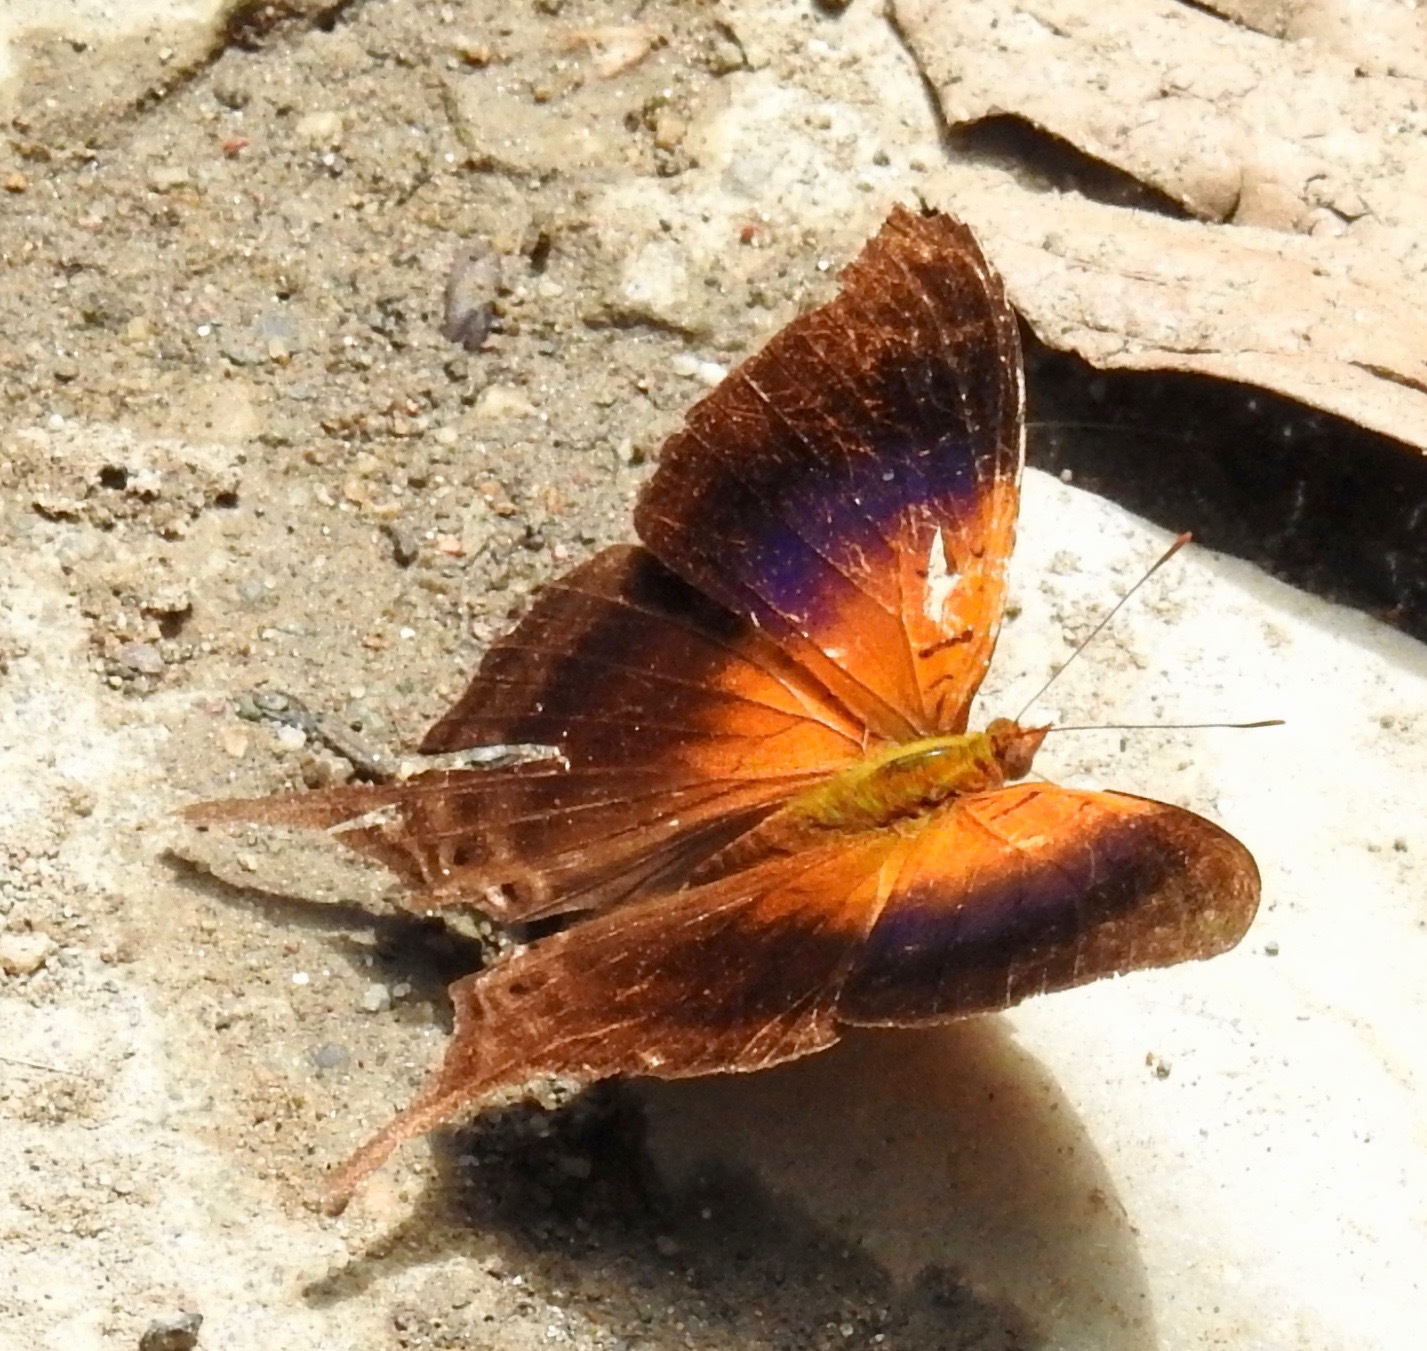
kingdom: Animalia
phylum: Arthropoda
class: Insecta
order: Lepidoptera
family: Nymphalidae
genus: Marpesia
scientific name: Marpesia furcula
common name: Sunset daggerwing
